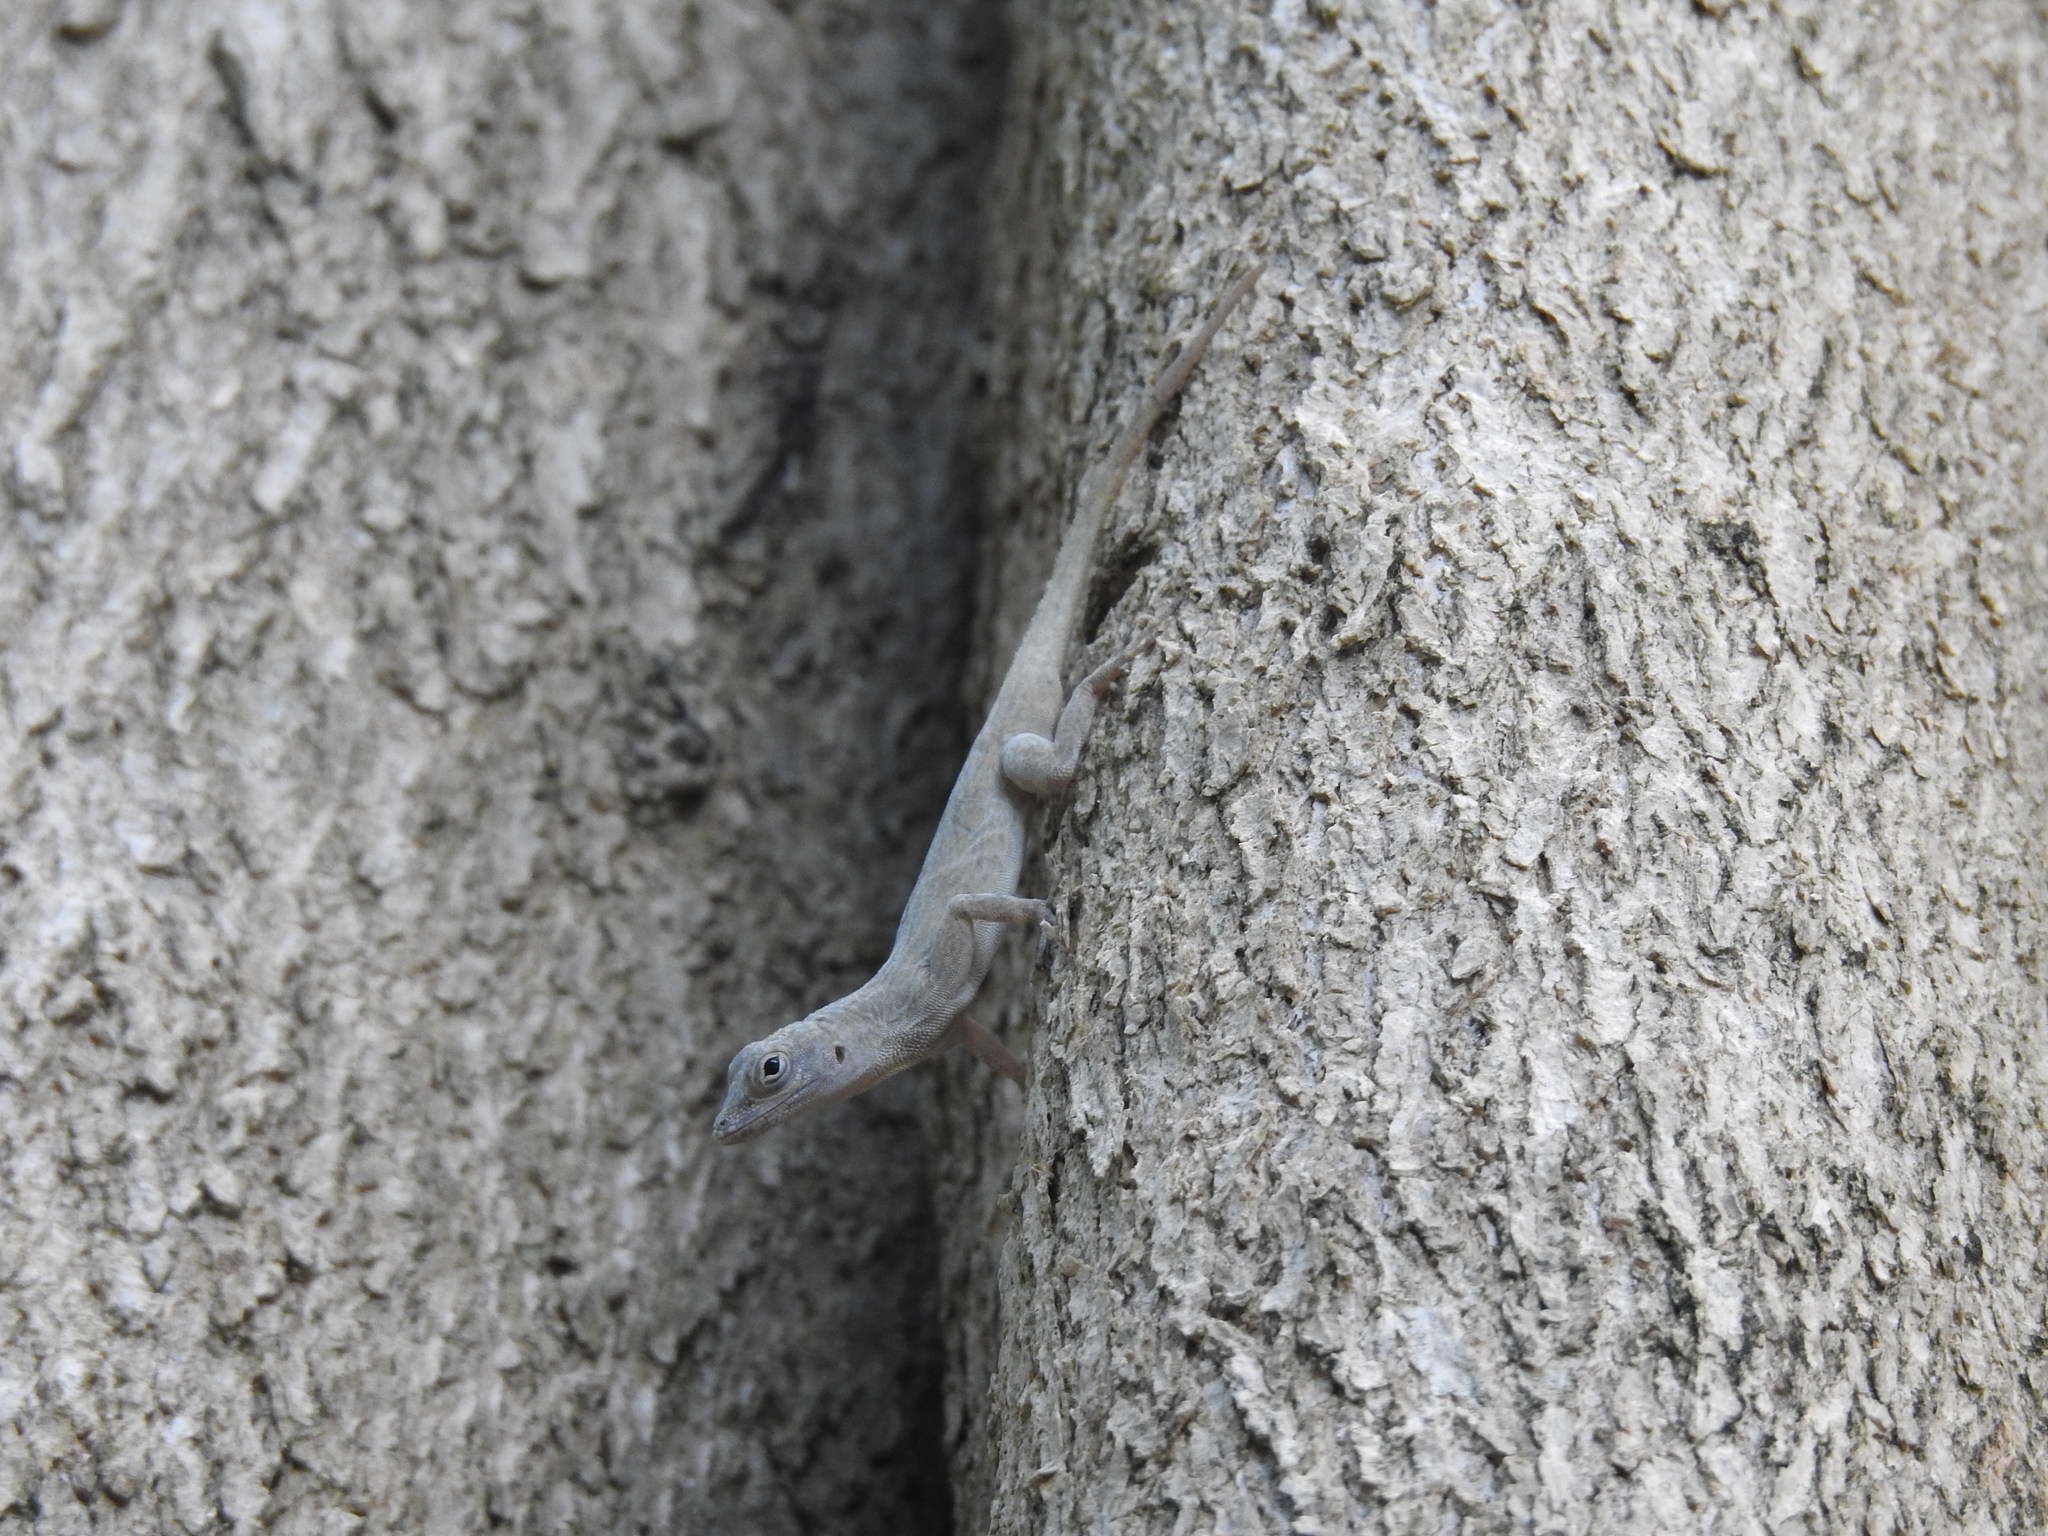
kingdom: Animalia
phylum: Chordata
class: Squamata
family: Dactyloidae
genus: Anolis
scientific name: Anolis distichus
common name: Bark anole
